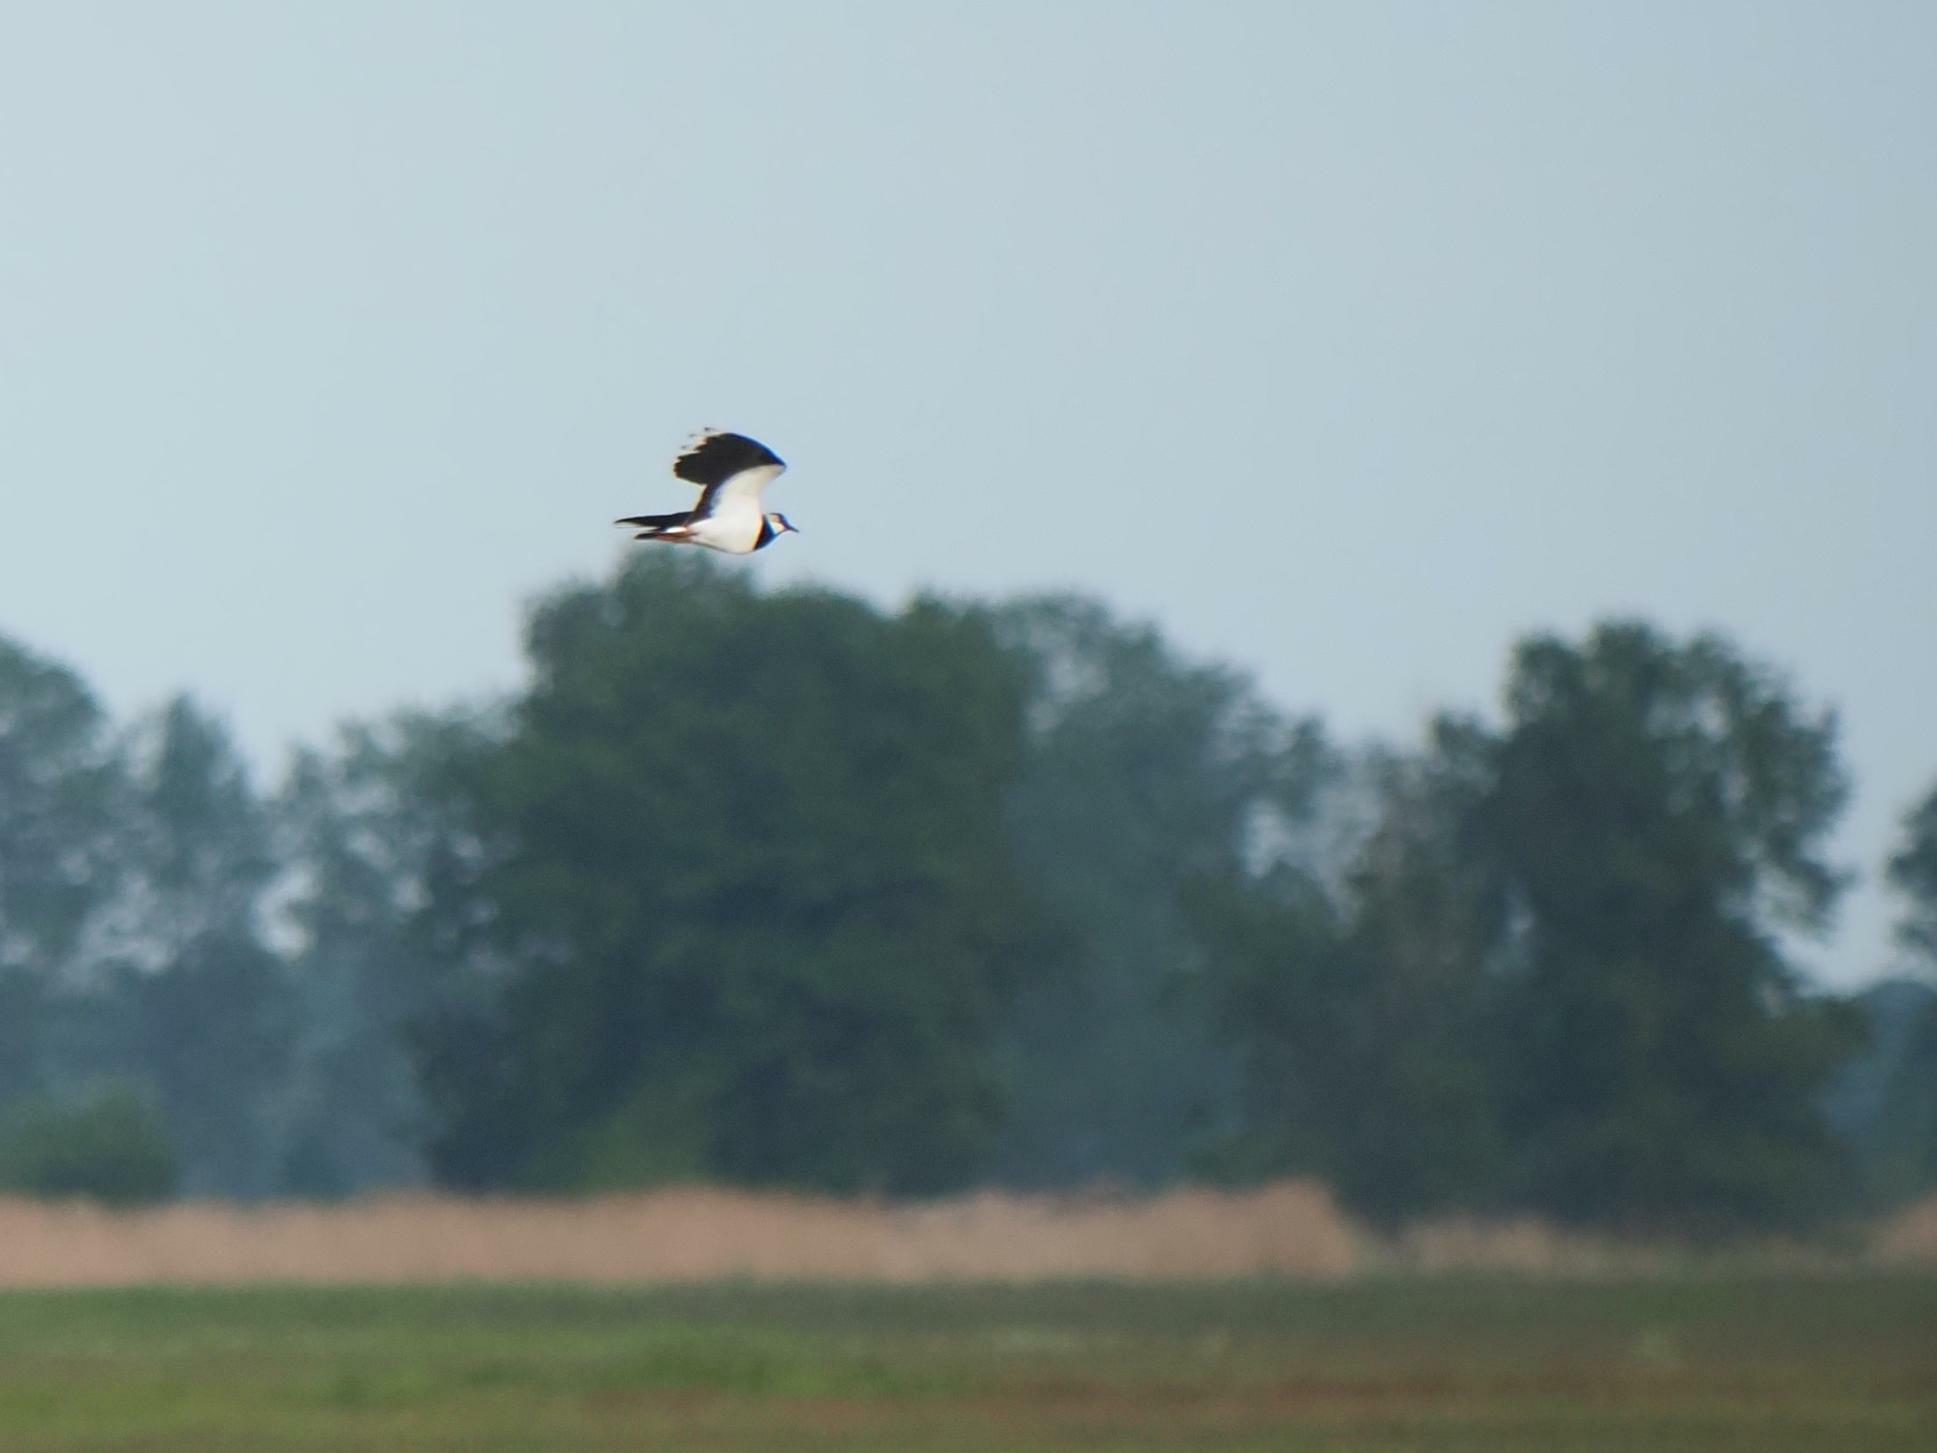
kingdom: Animalia
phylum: Chordata
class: Aves
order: Charadriiformes
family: Charadriidae
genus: Vanellus
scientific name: Vanellus vanellus
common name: Northern lapwing
